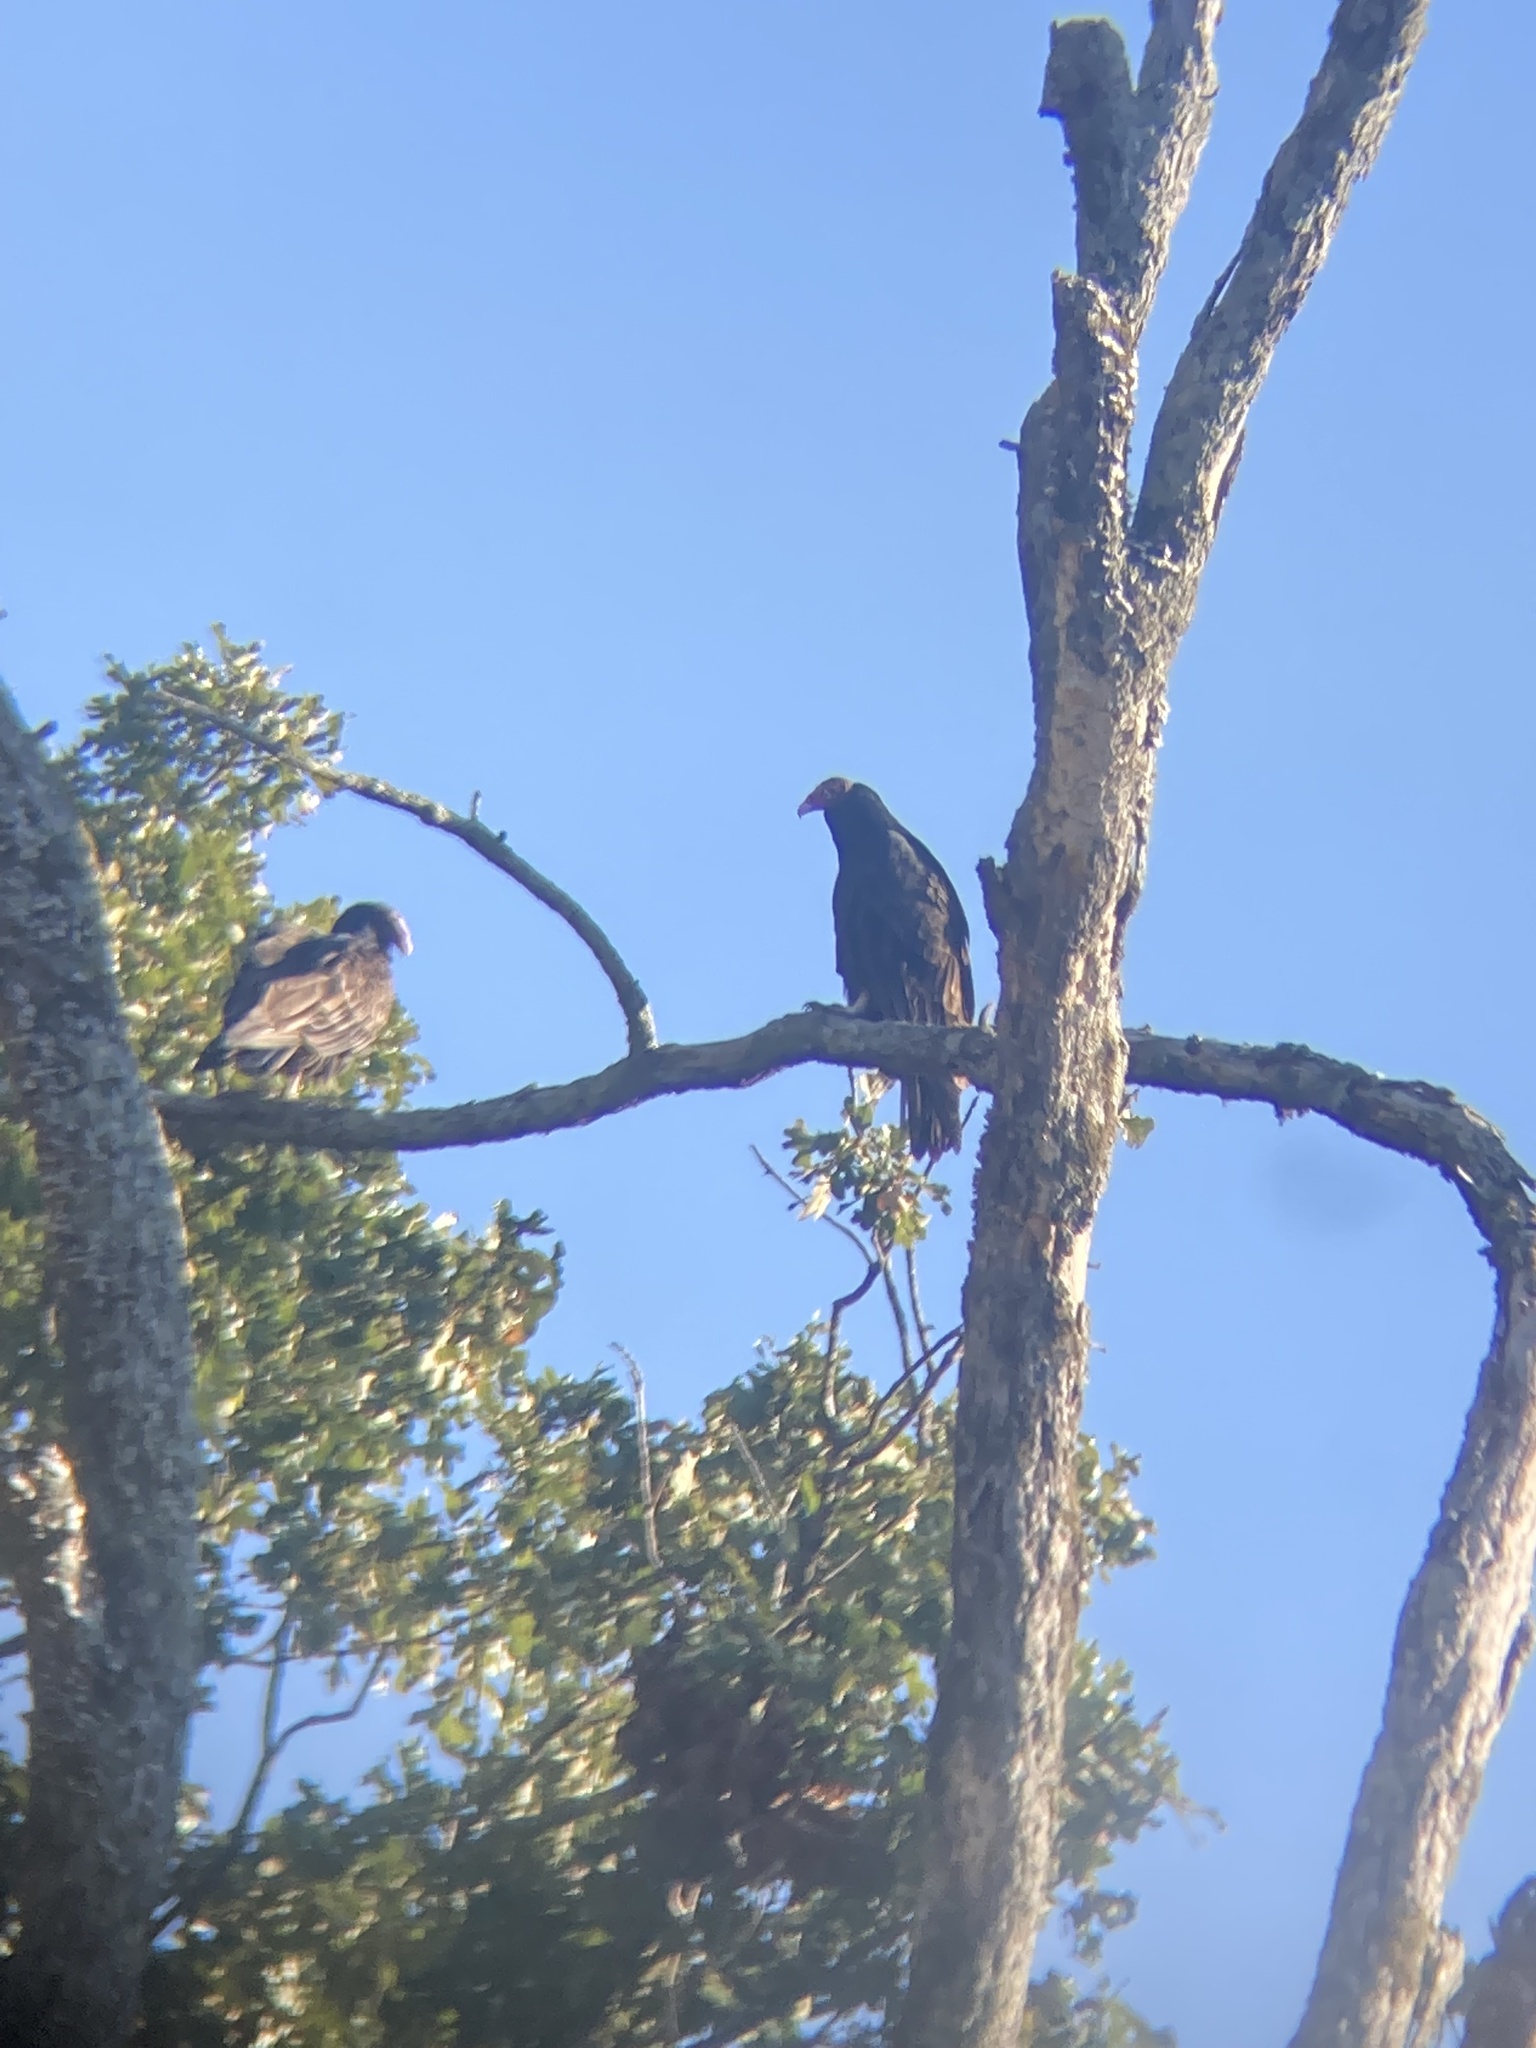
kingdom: Animalia
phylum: Chordata
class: Aves
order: Accipitriformes
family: Cathartidae
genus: Cathartes
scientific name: Cathartes aura
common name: Turkey vulture
